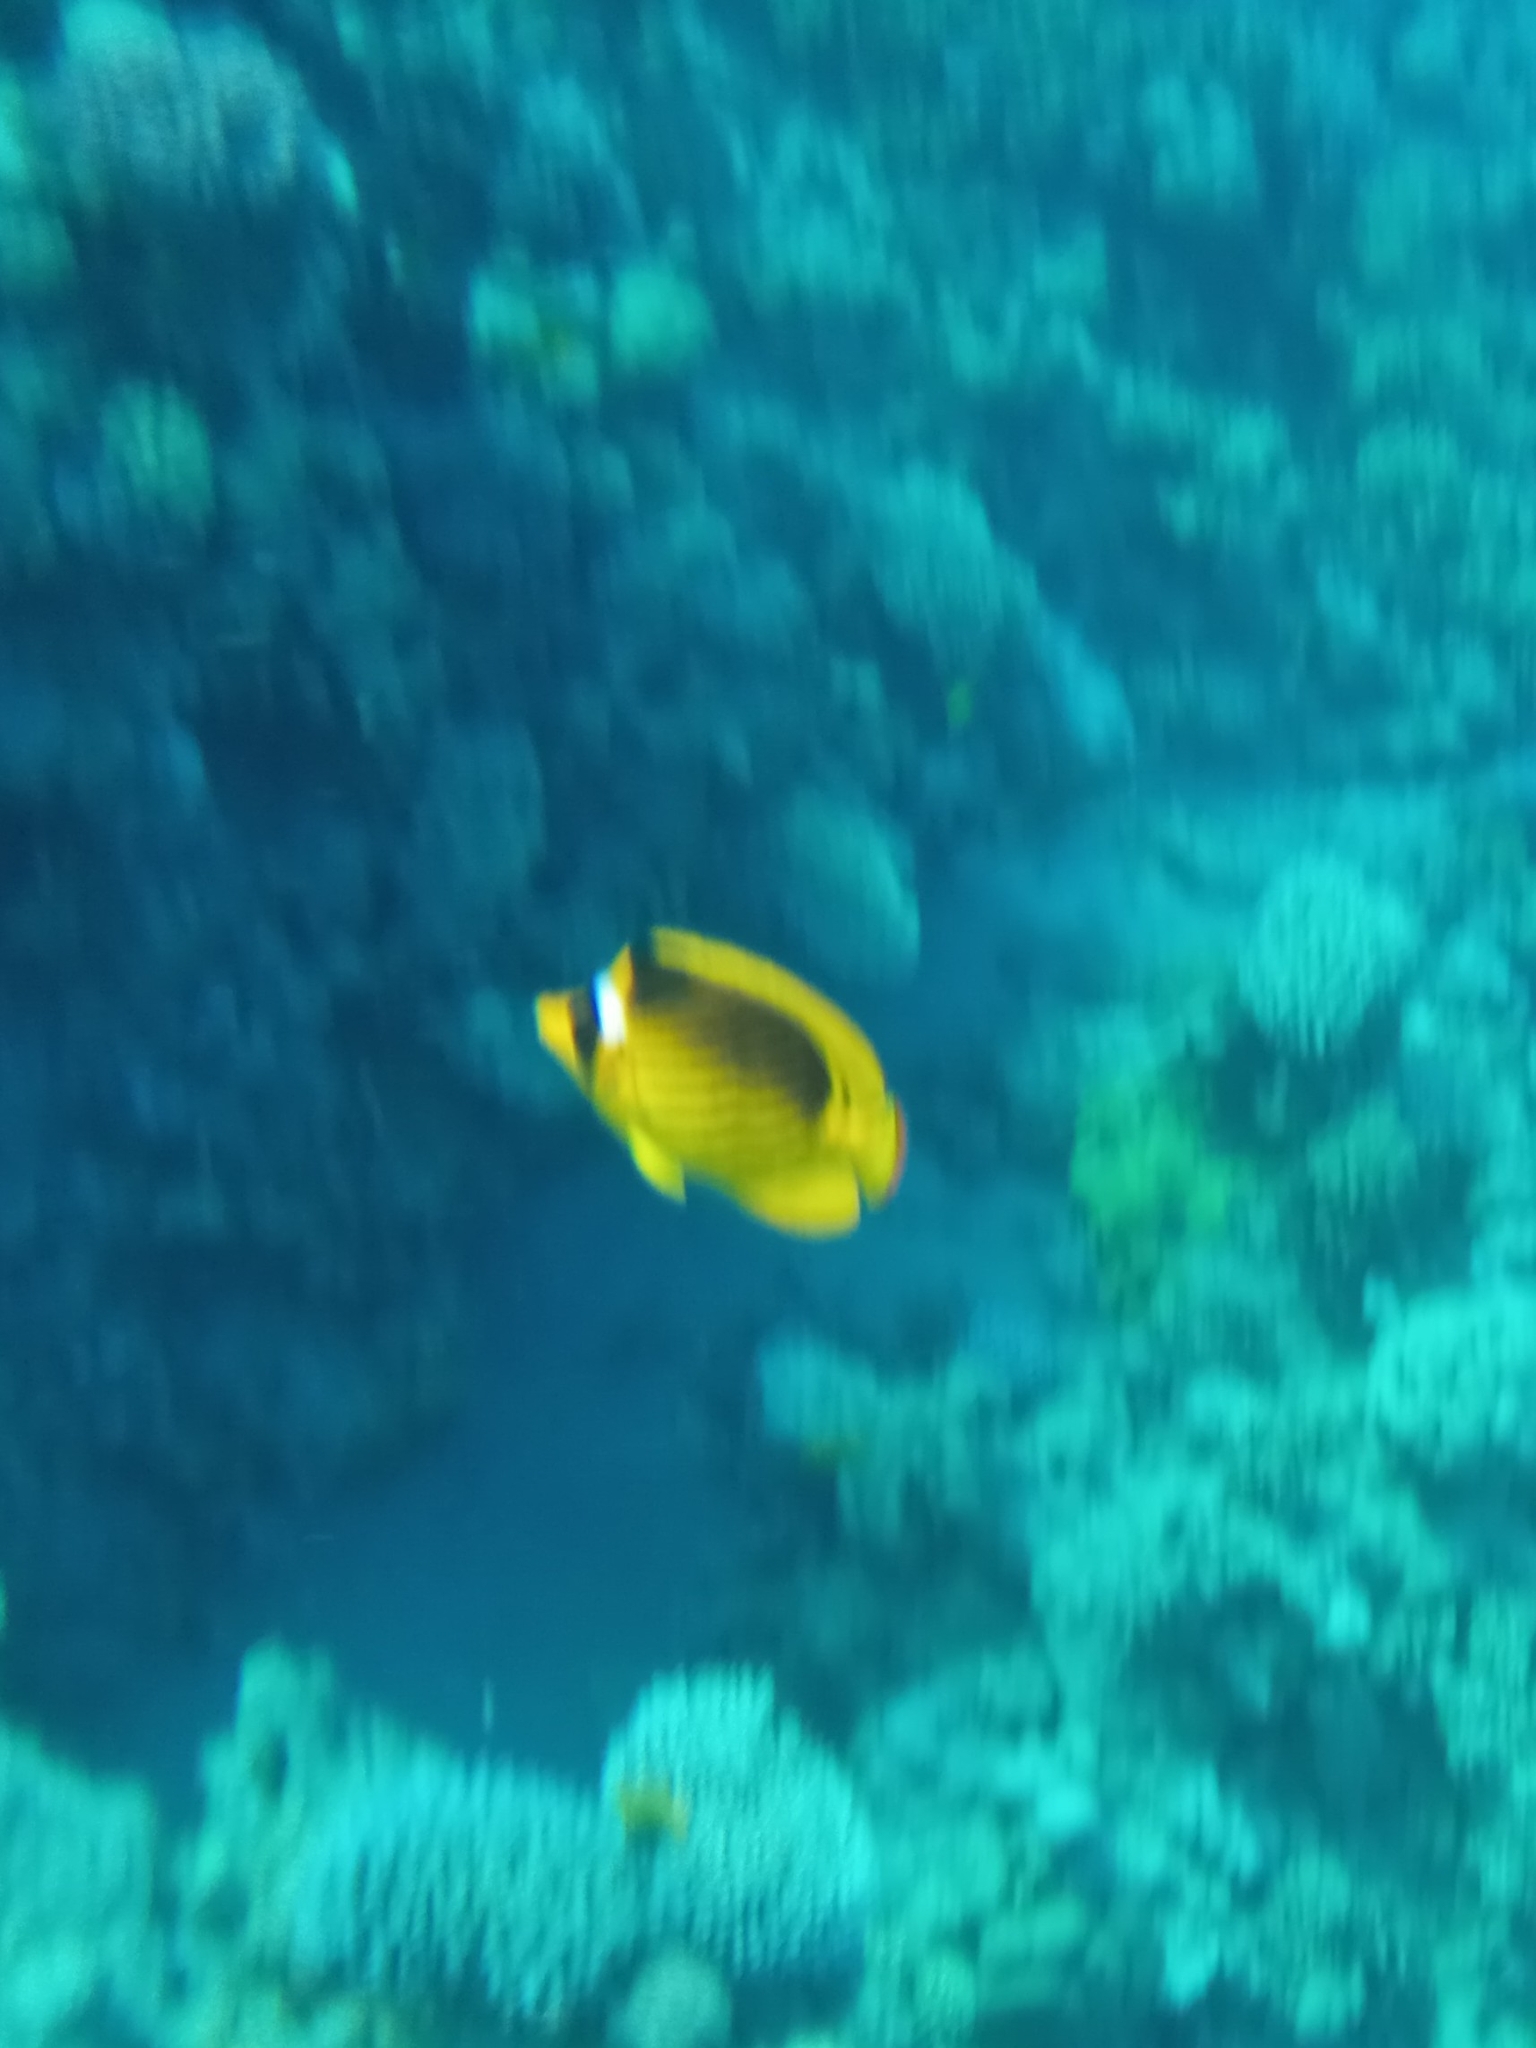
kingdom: Animalia
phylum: Chordata
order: Perciformes
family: Chaetodontidae
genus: Chaetodon
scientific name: Chaetodon fasciatus
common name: Diagonal butterflyfish
